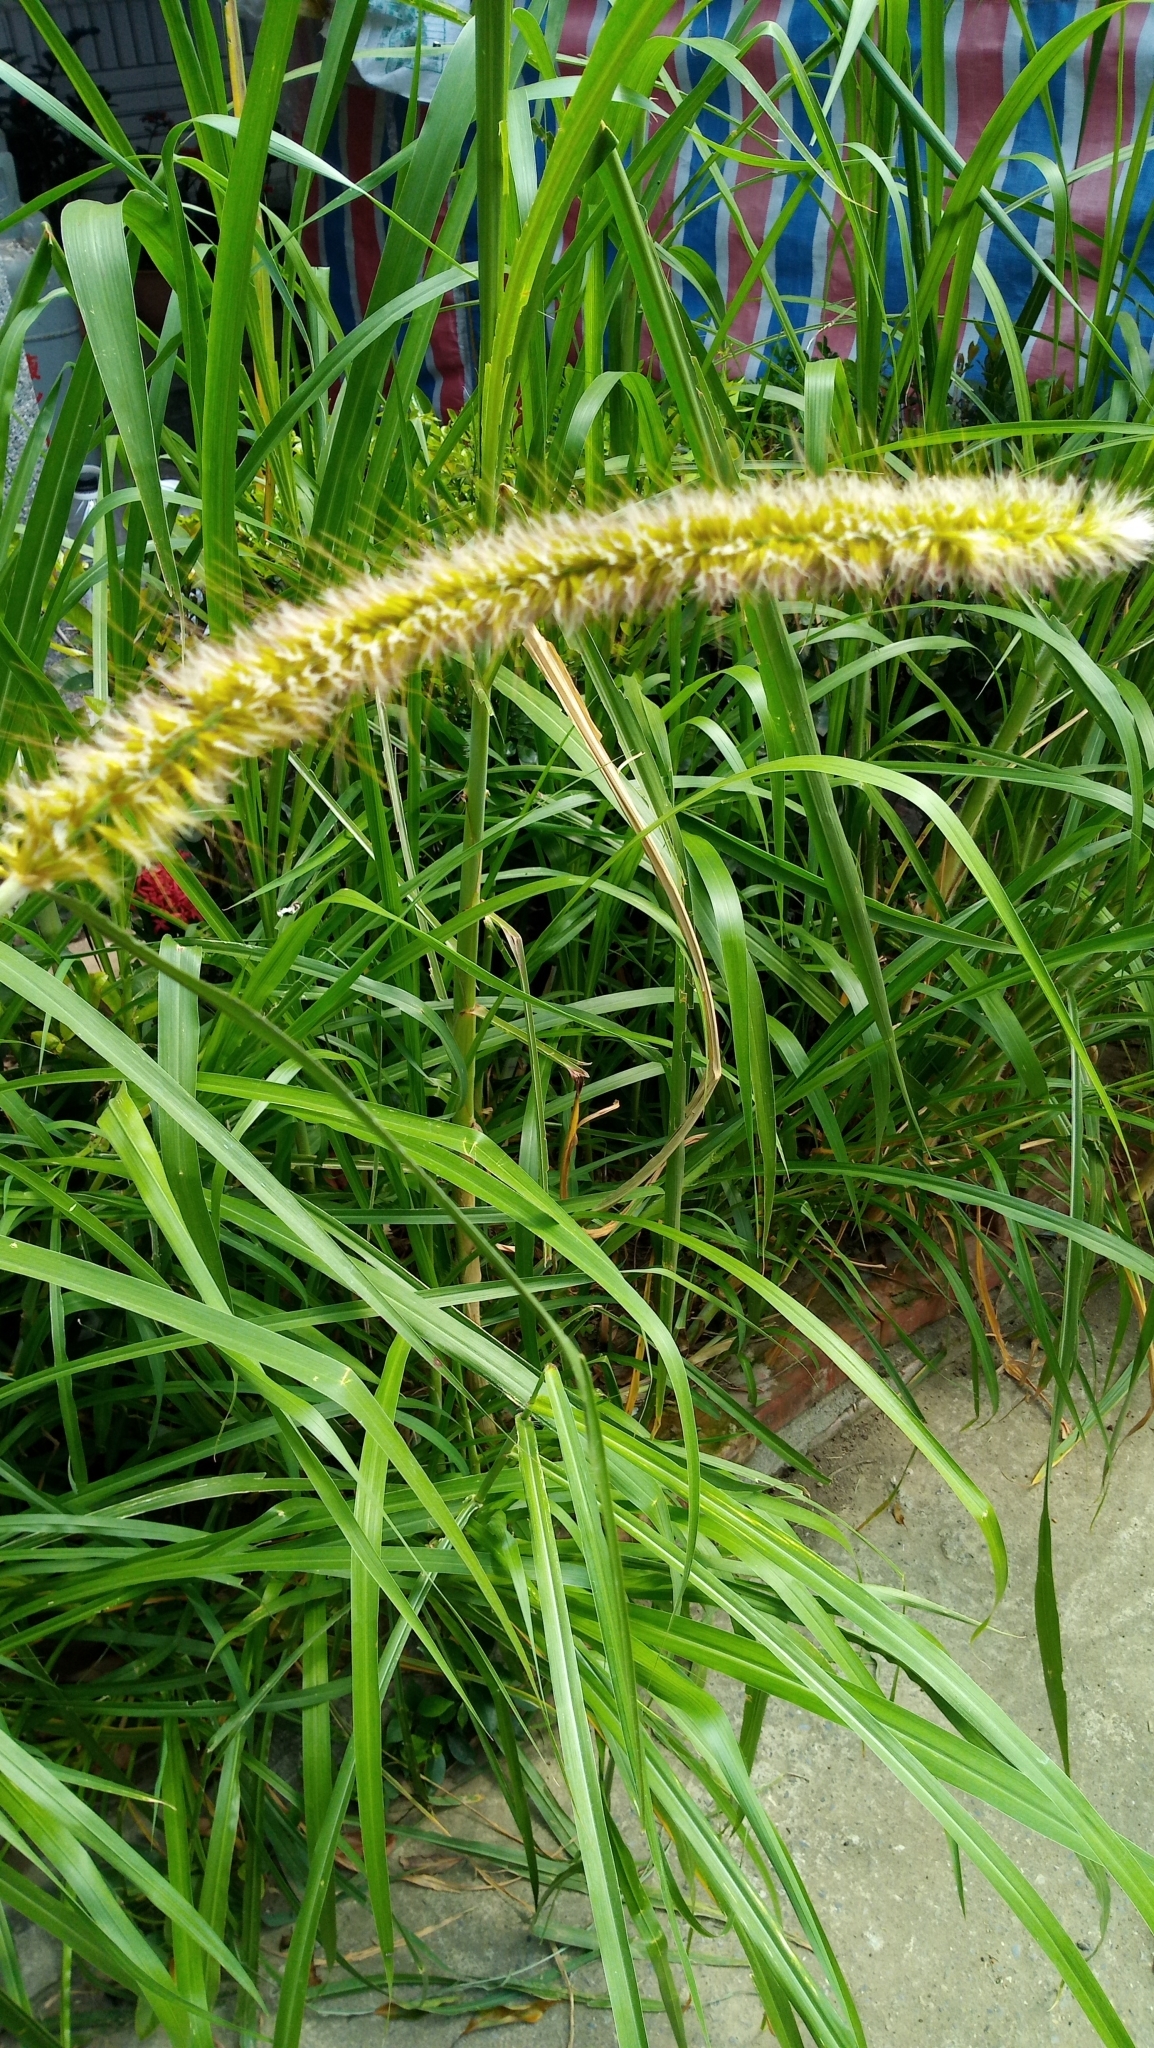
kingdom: Plantae
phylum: Tracheophyta
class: Liliopsida
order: Poales
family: Poaceae
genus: Cenchrus
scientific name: Cenchrus purpureus
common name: Elephant grass
